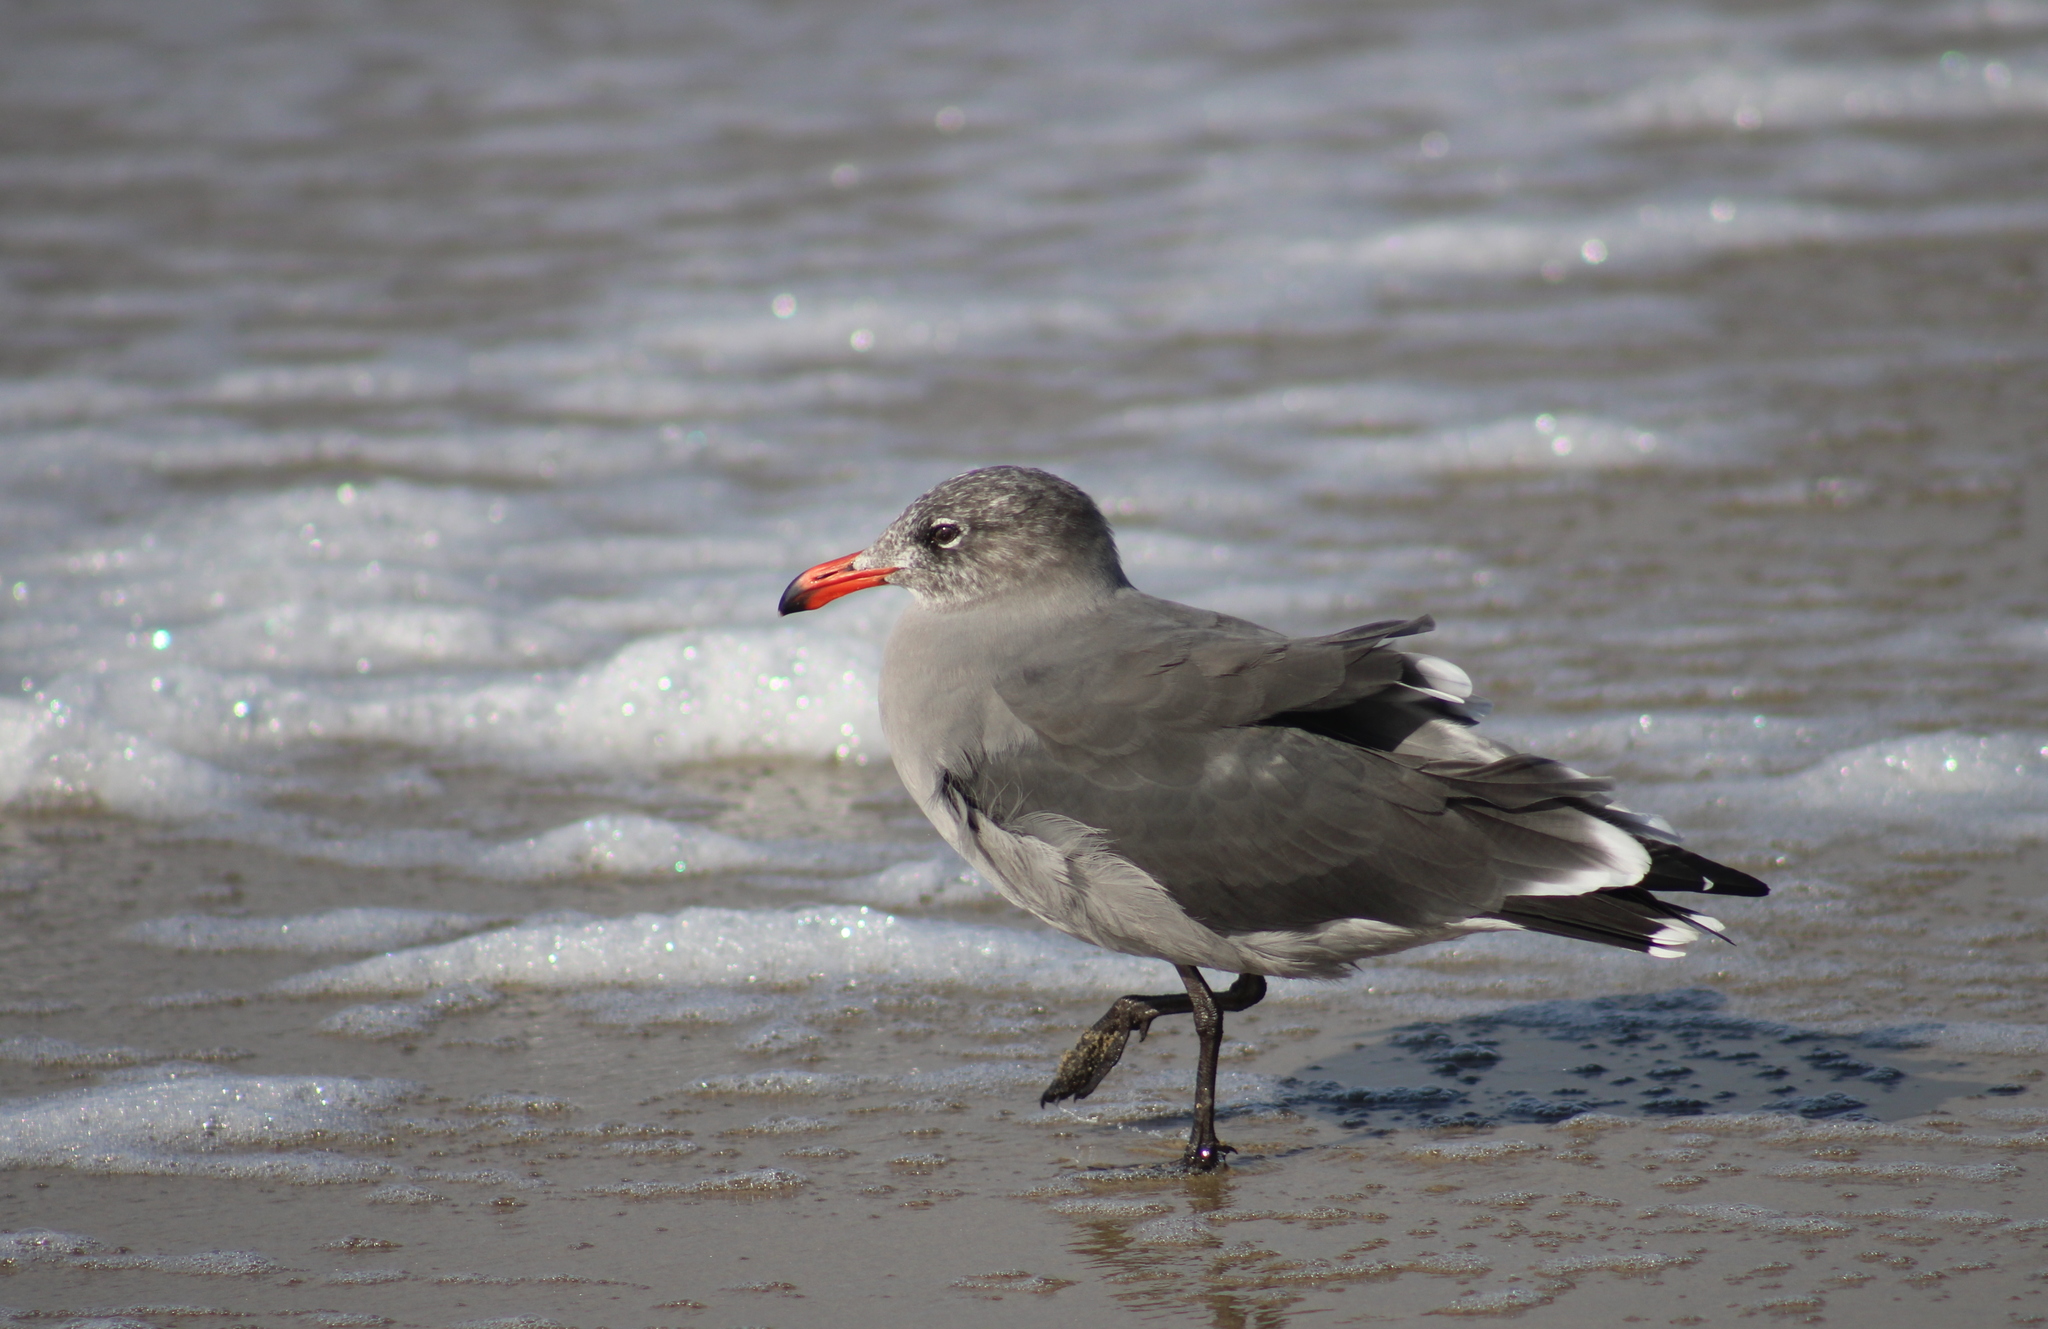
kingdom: Animalia
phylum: Chordata
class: Aves
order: Charadriiformes
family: Laridae
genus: Larus
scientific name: Larus heermanni
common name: Heermann's gull
